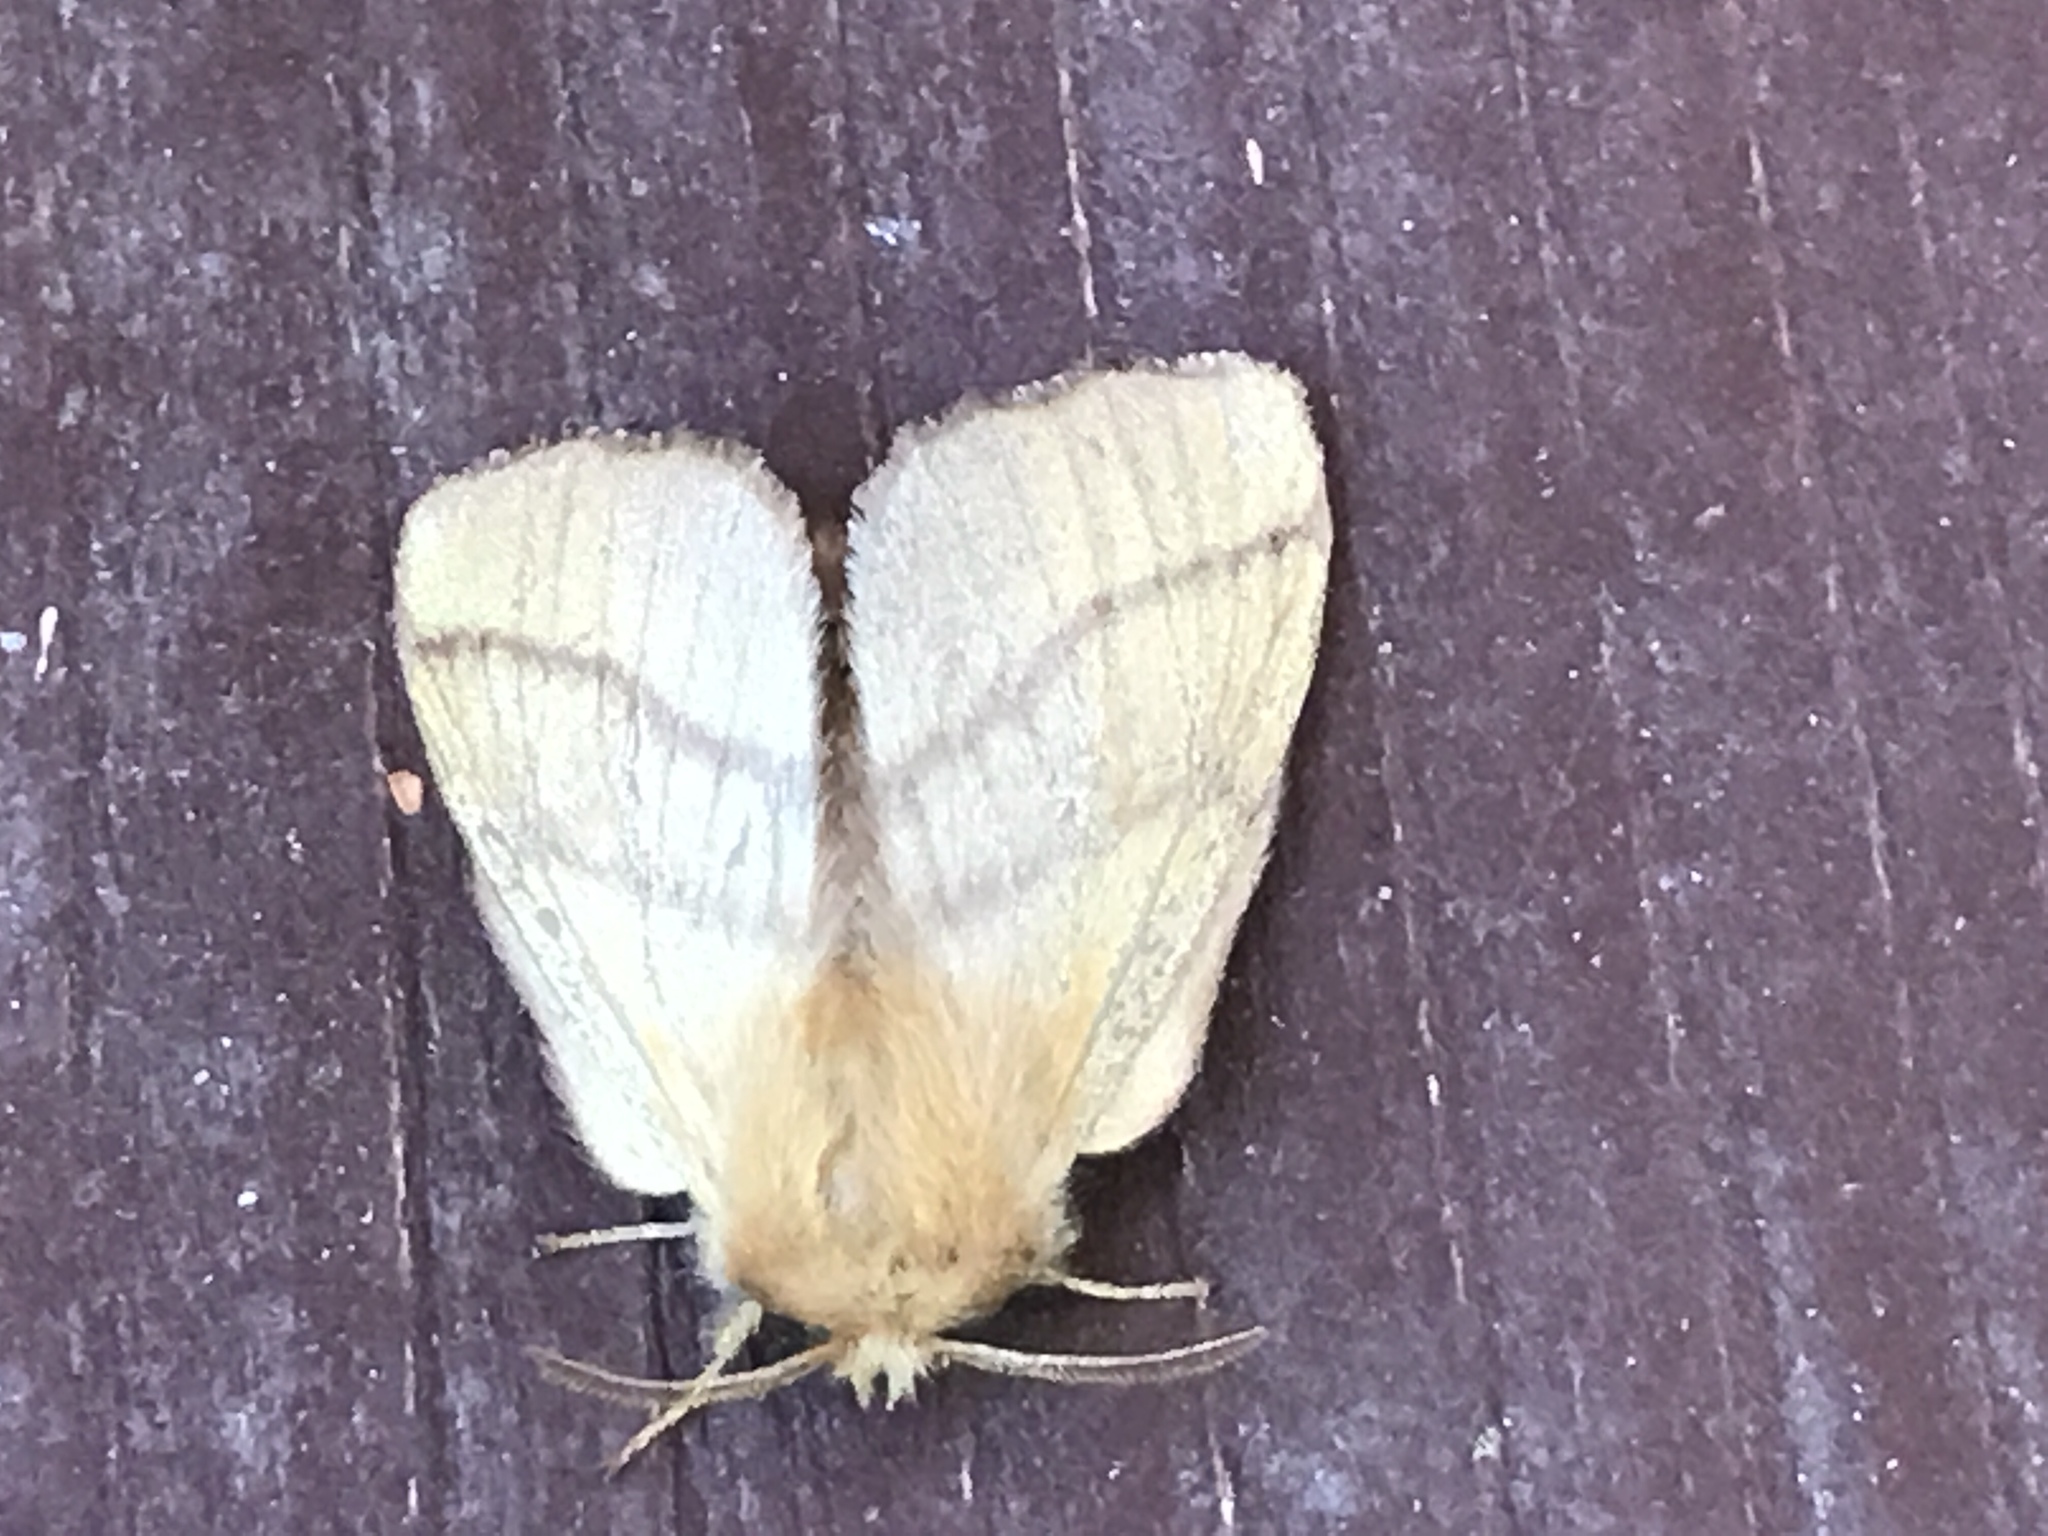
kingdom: Animalia
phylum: Arthropoda
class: Insecta
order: Lepidoptera
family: Lasiocampidae
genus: Malacosoma
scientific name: Malacosoma disstria
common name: Forest tent caterpillar
